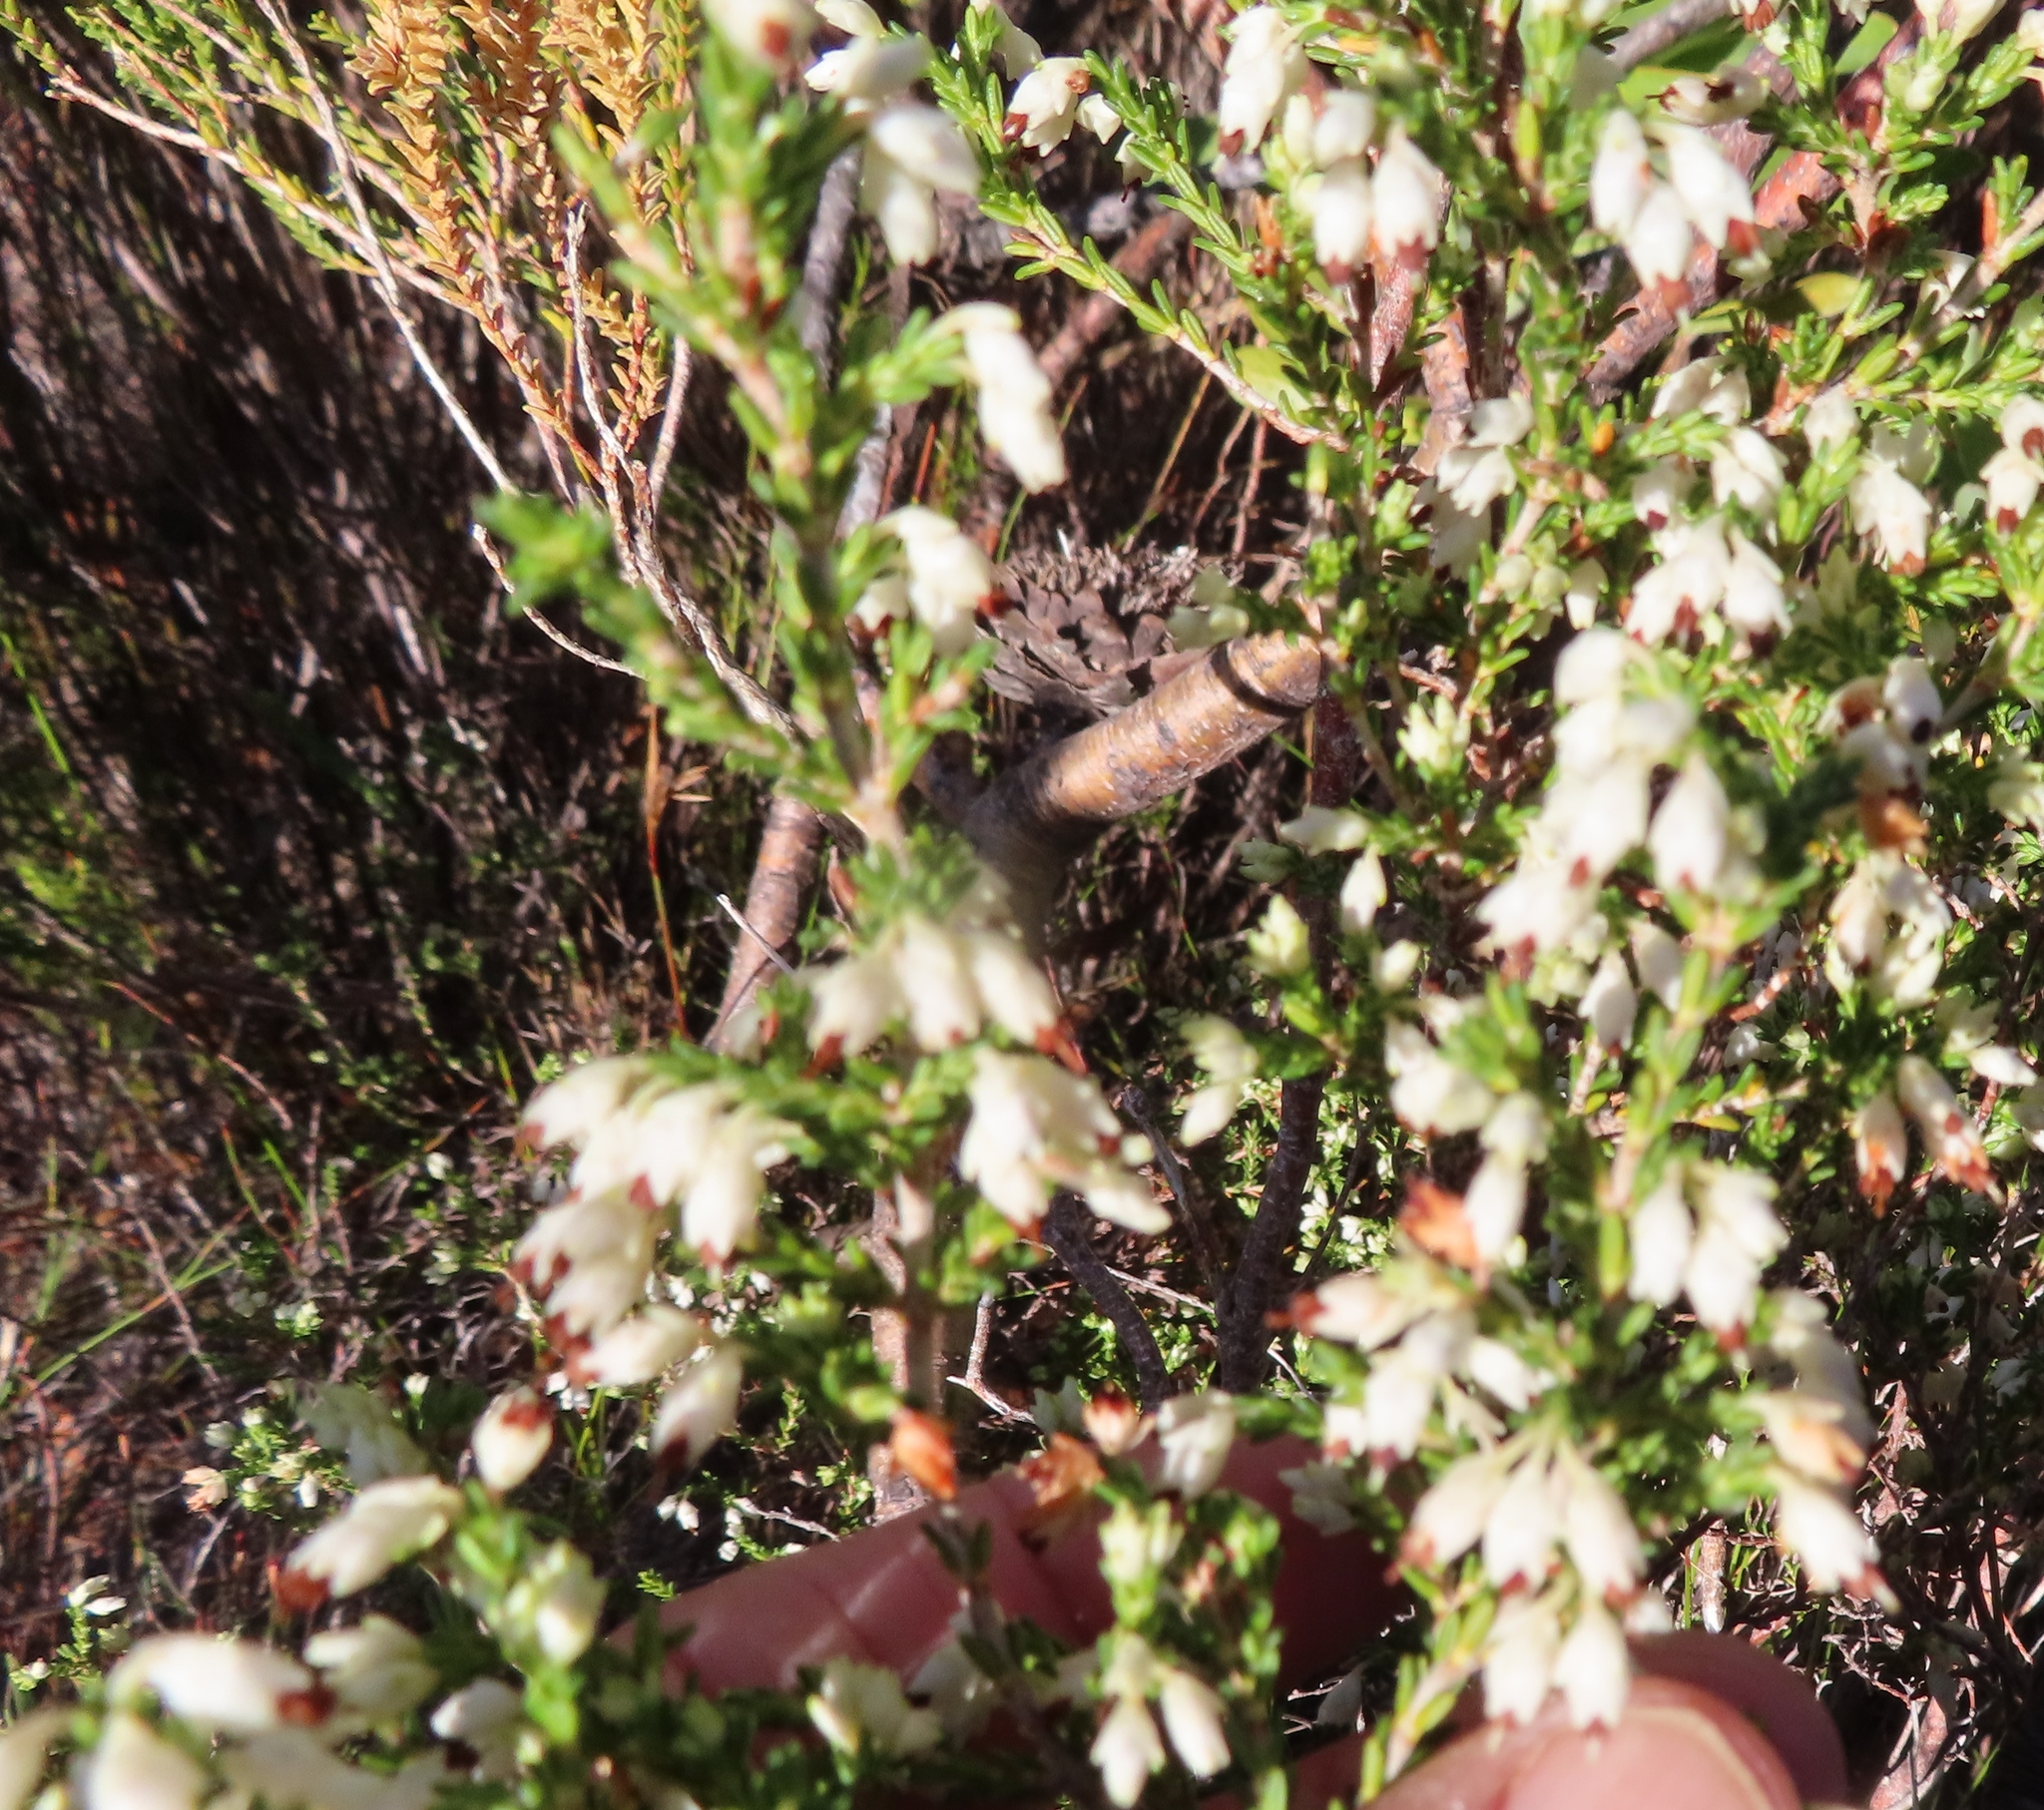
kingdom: Plantae
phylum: Tracheophyta
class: Magnoliopsida
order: Ericales
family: Ericaceae
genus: Erica
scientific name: Erica imbricata
